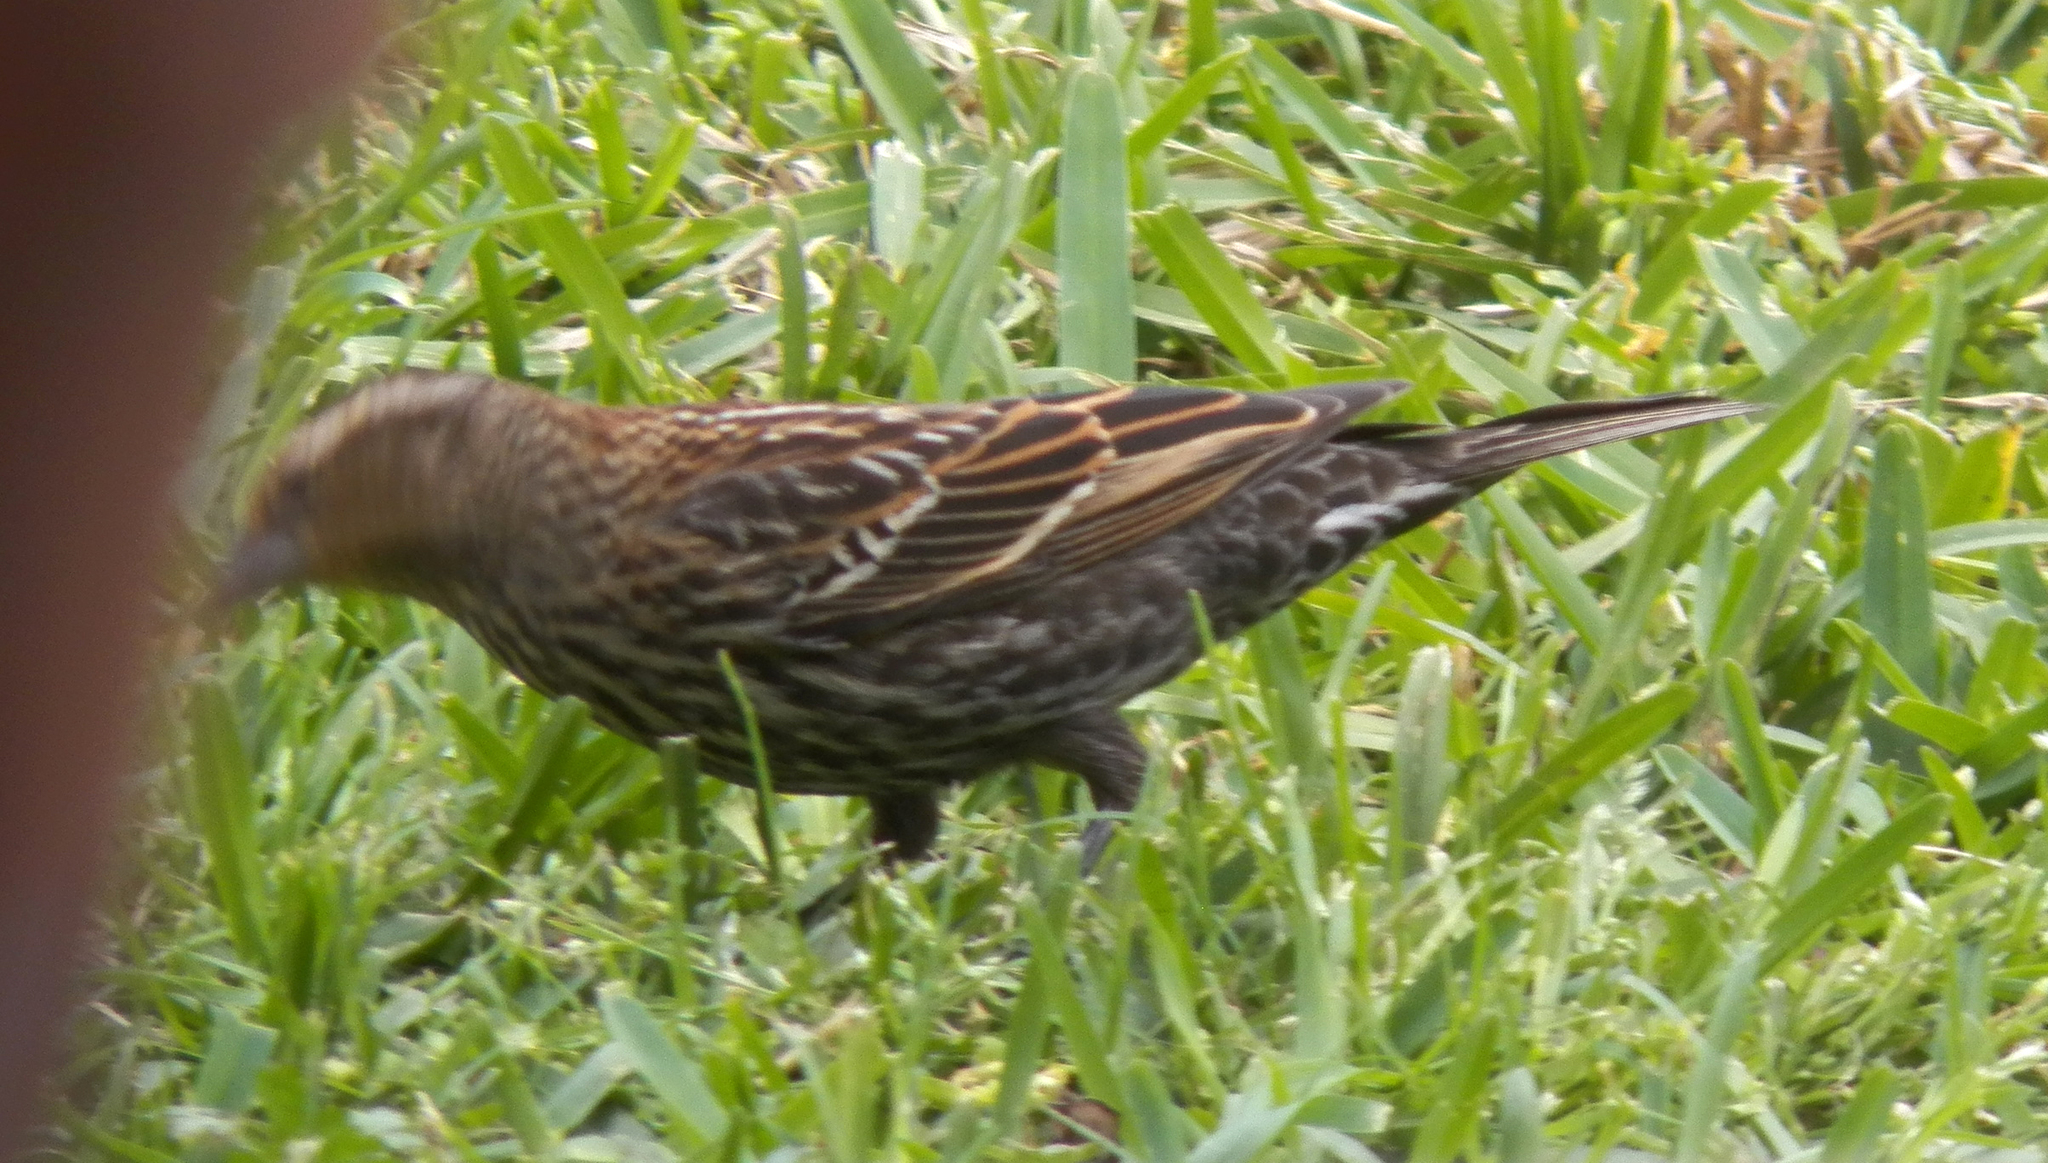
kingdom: Animalia
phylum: Chordata
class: Aves
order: Passeriformes
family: Icteridae
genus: Agelaius
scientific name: Agelaius phoeniceus
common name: Red-winged blackbird
